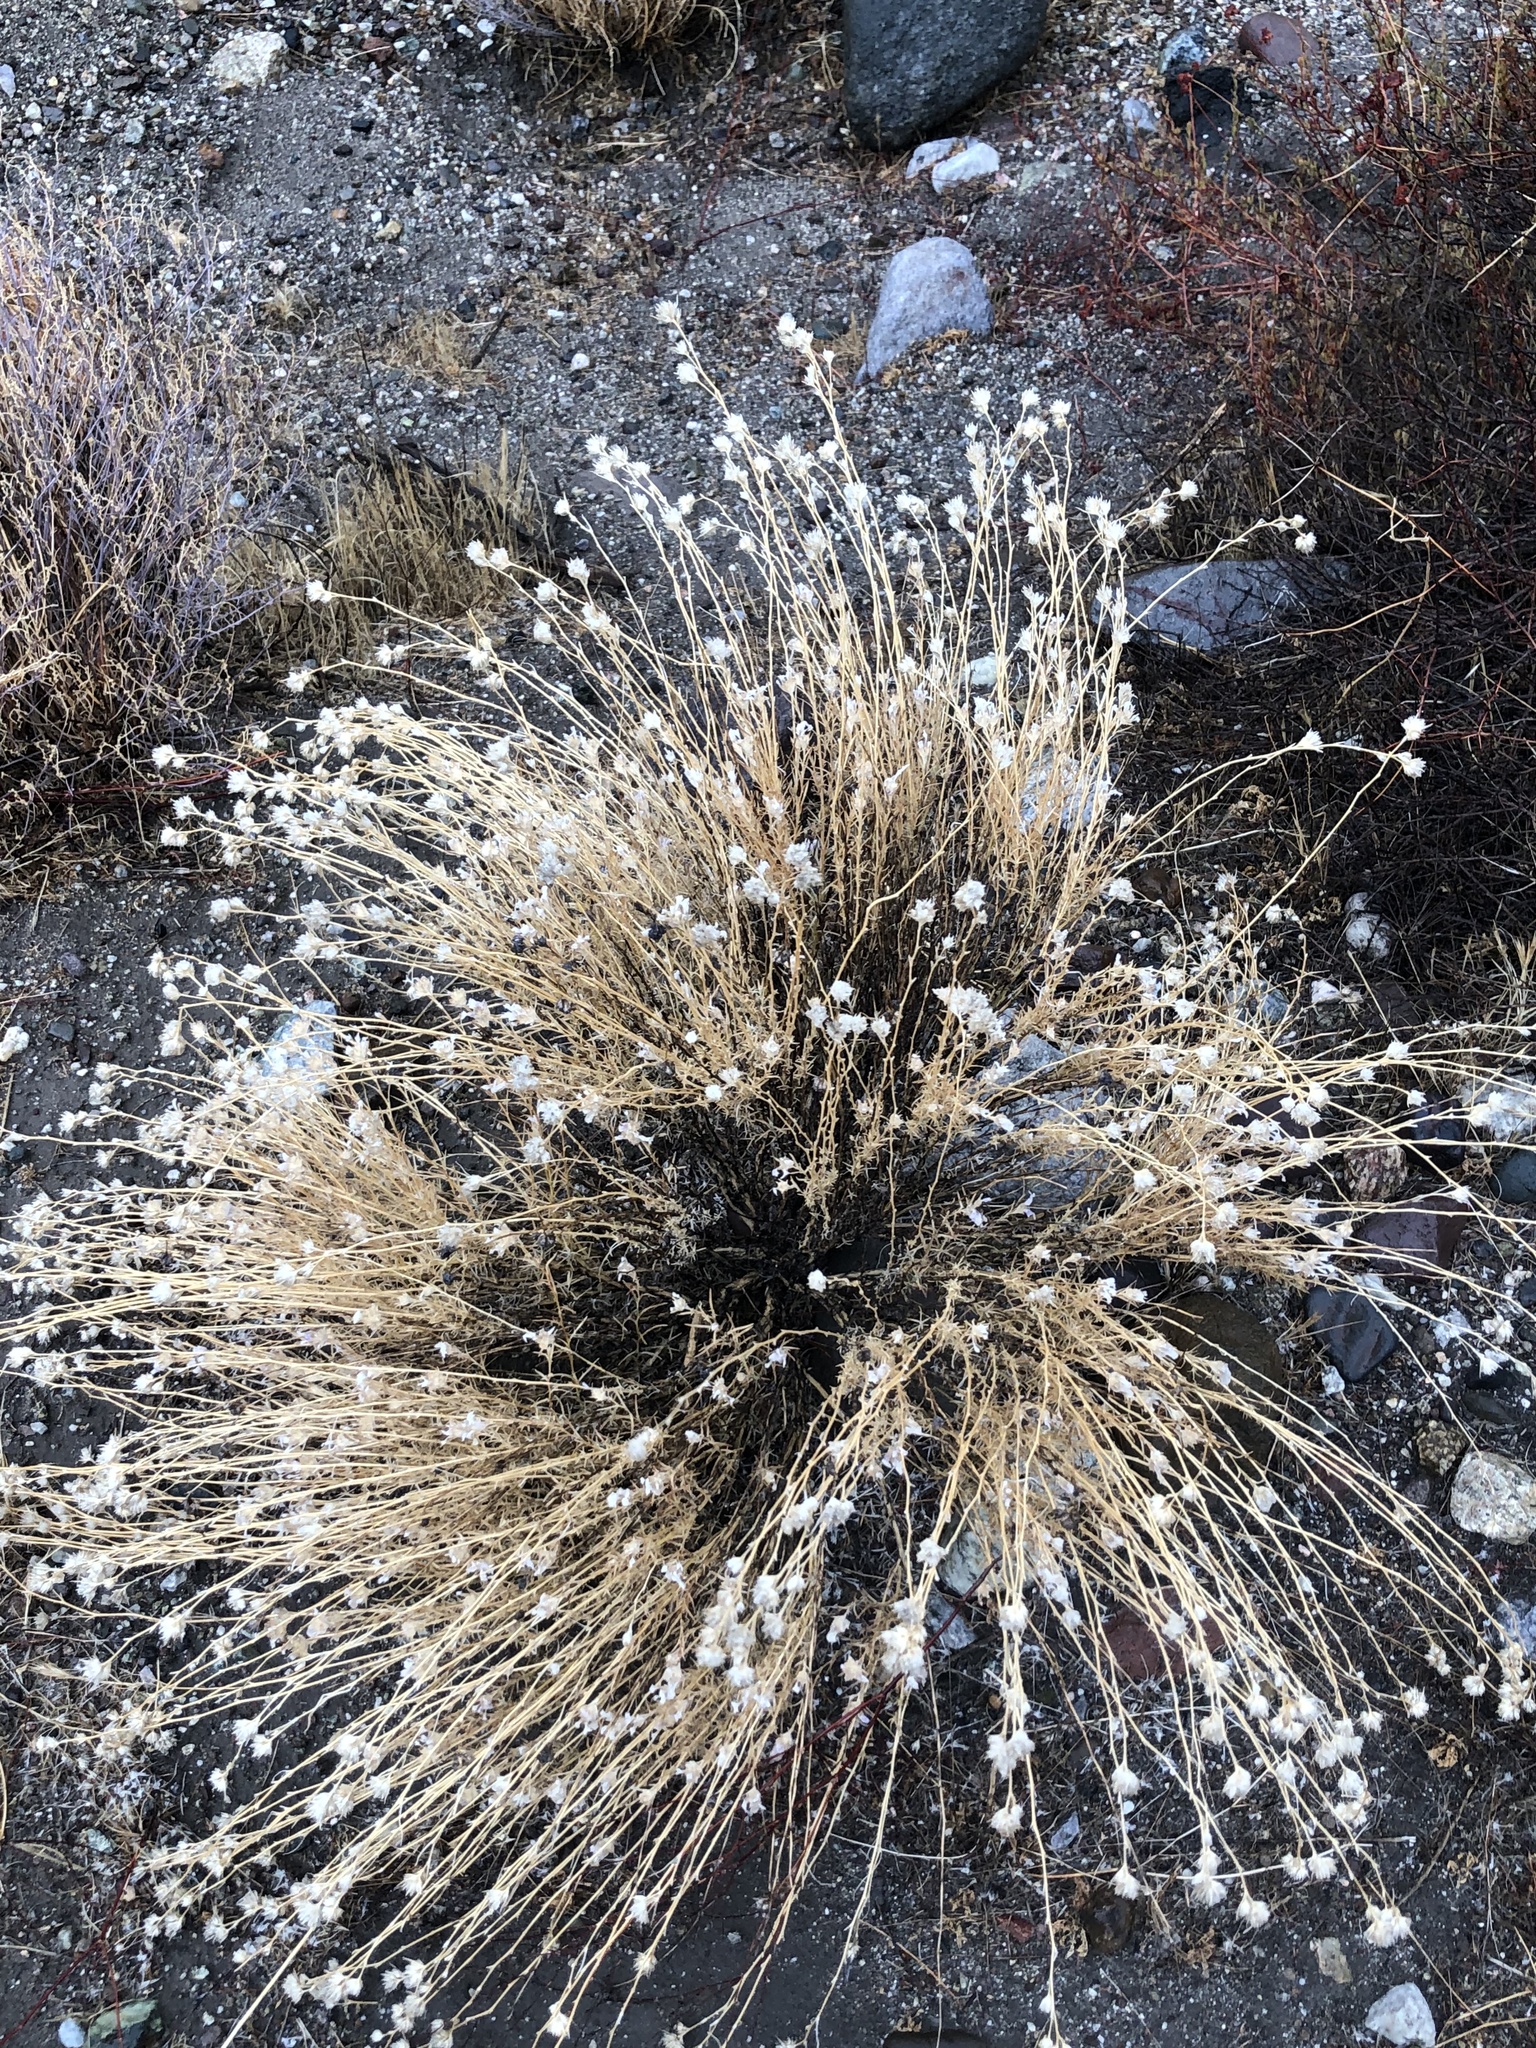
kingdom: Plantae
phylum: Tracheophyta
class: Magnoliopsida
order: Ericales
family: Polemoniaceae
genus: Eriastrum
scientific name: Eriastrum densifolium
